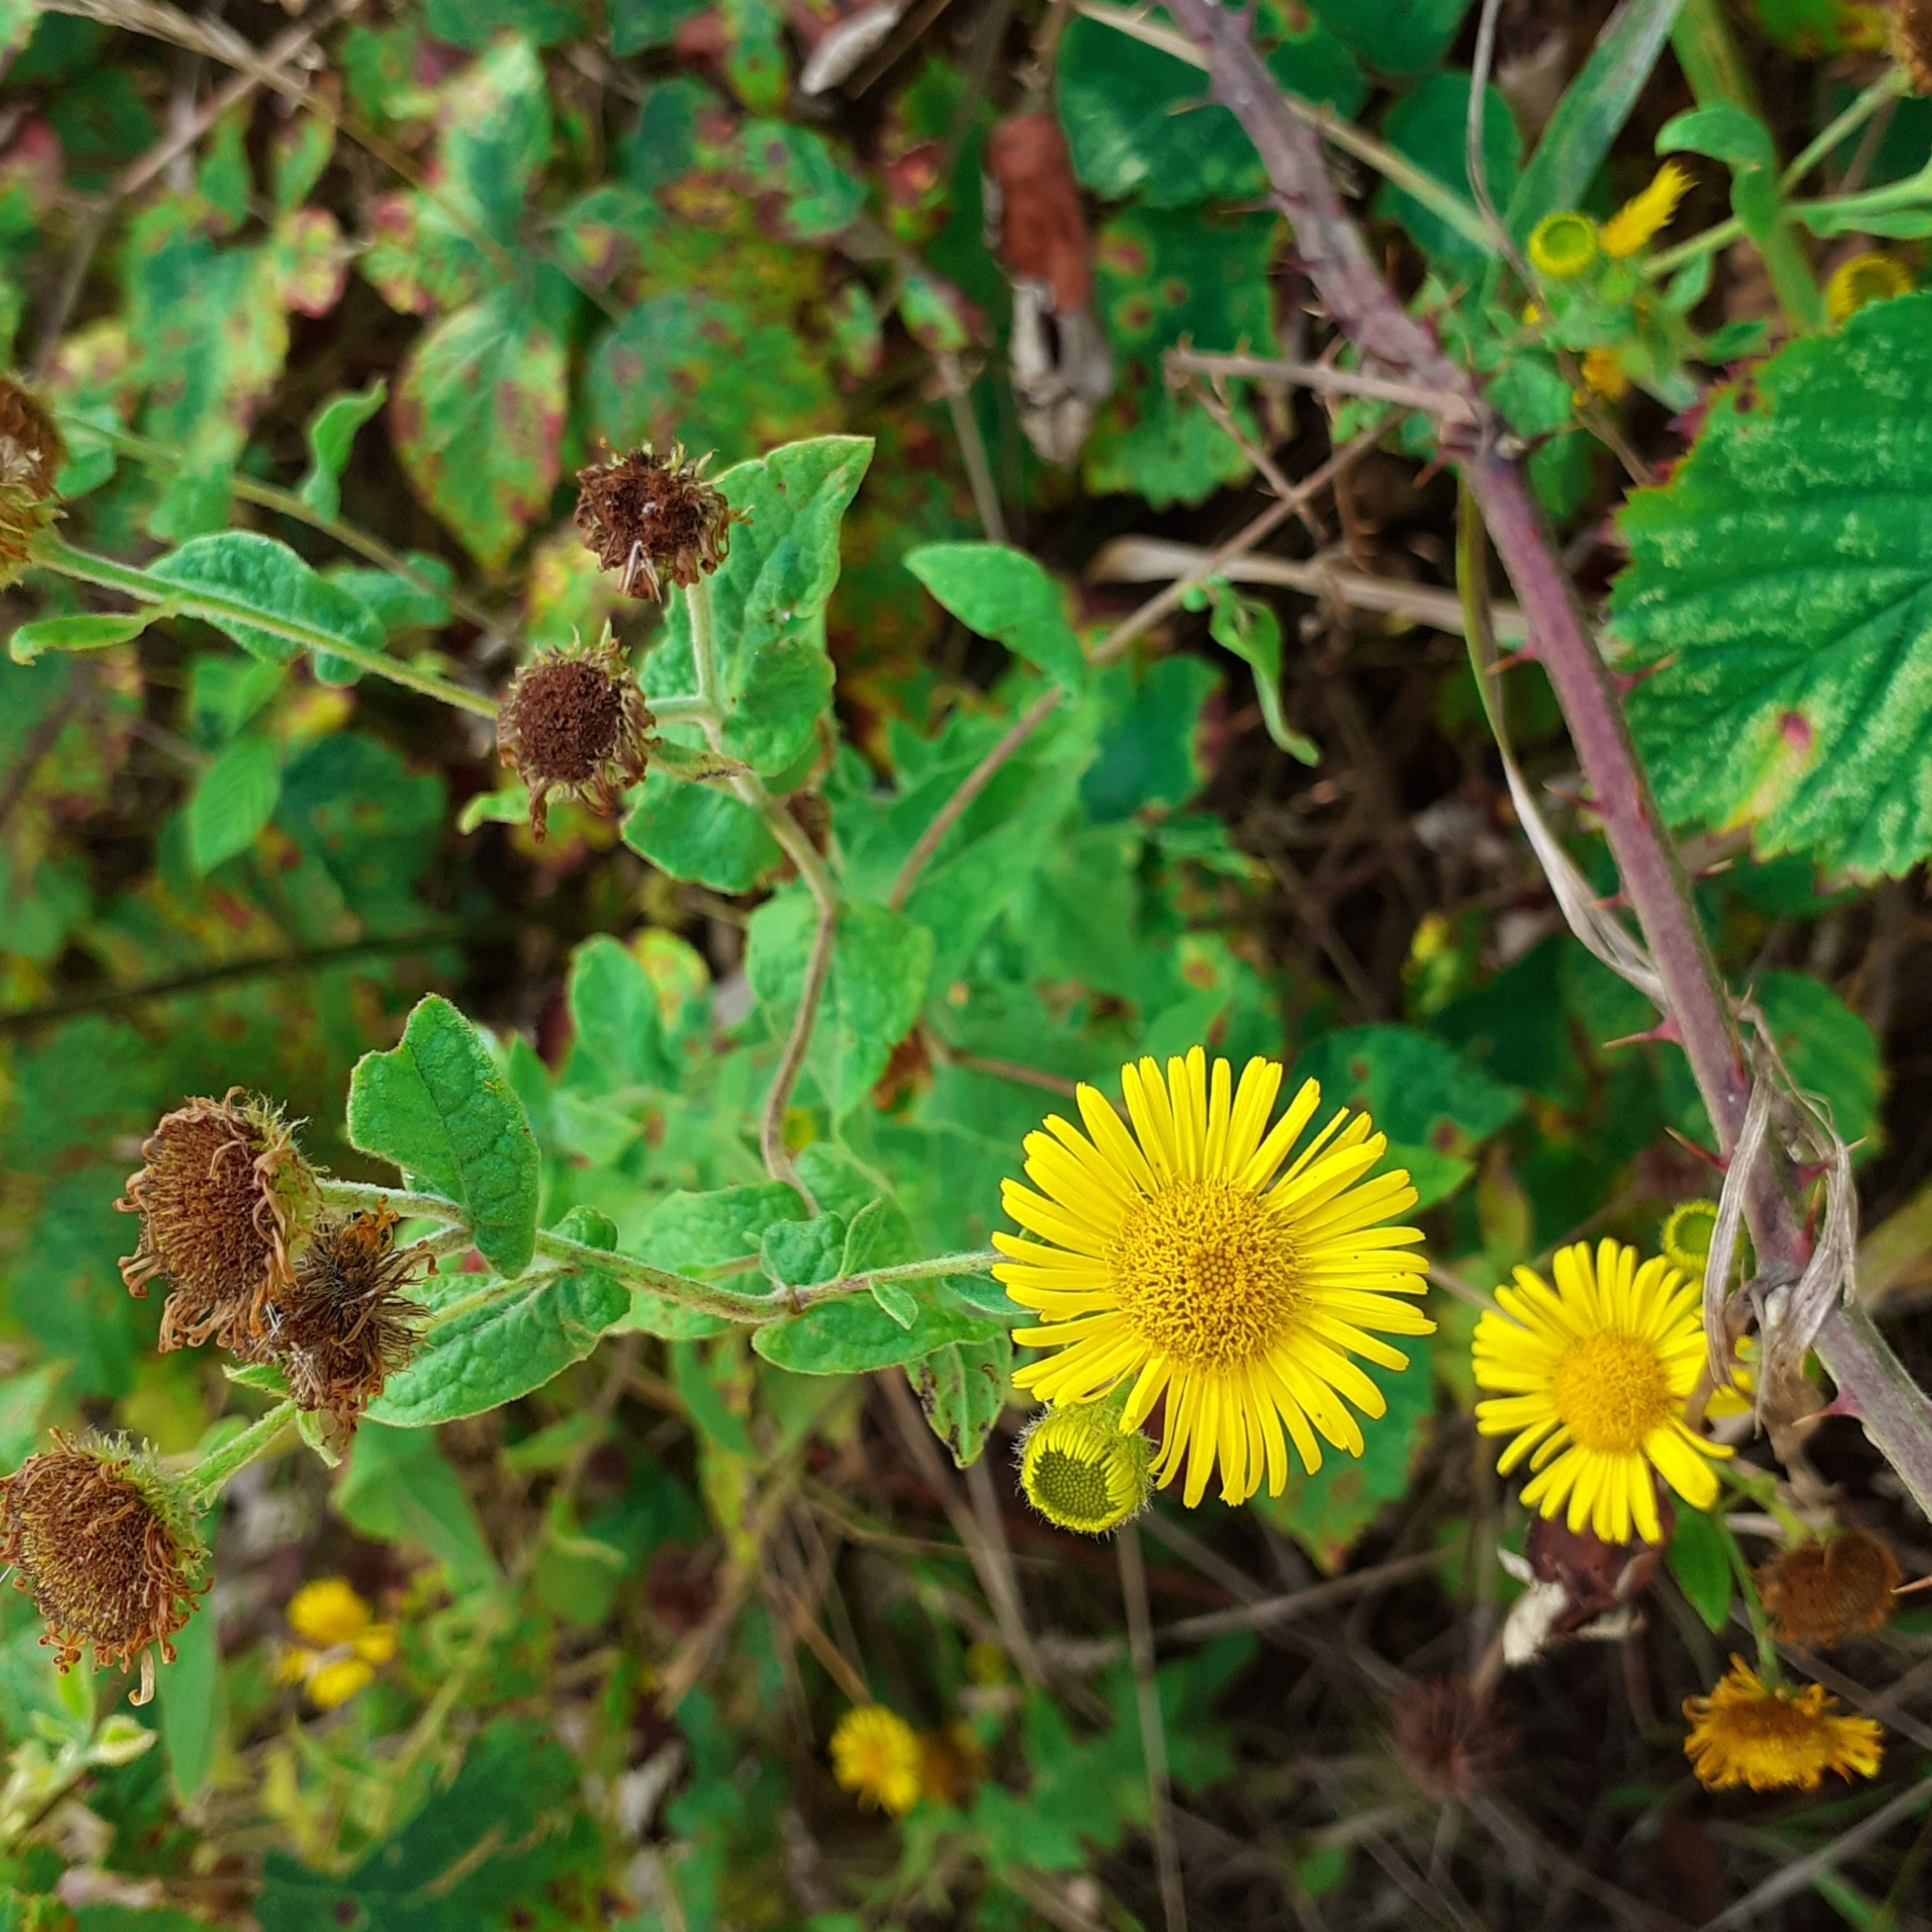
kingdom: Plantae
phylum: Tracheophyta
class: Magnoliopsida
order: Asterales
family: Asteraceae
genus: Pulicaria
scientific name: Pulicaria dysenterica
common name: Common fleabane
